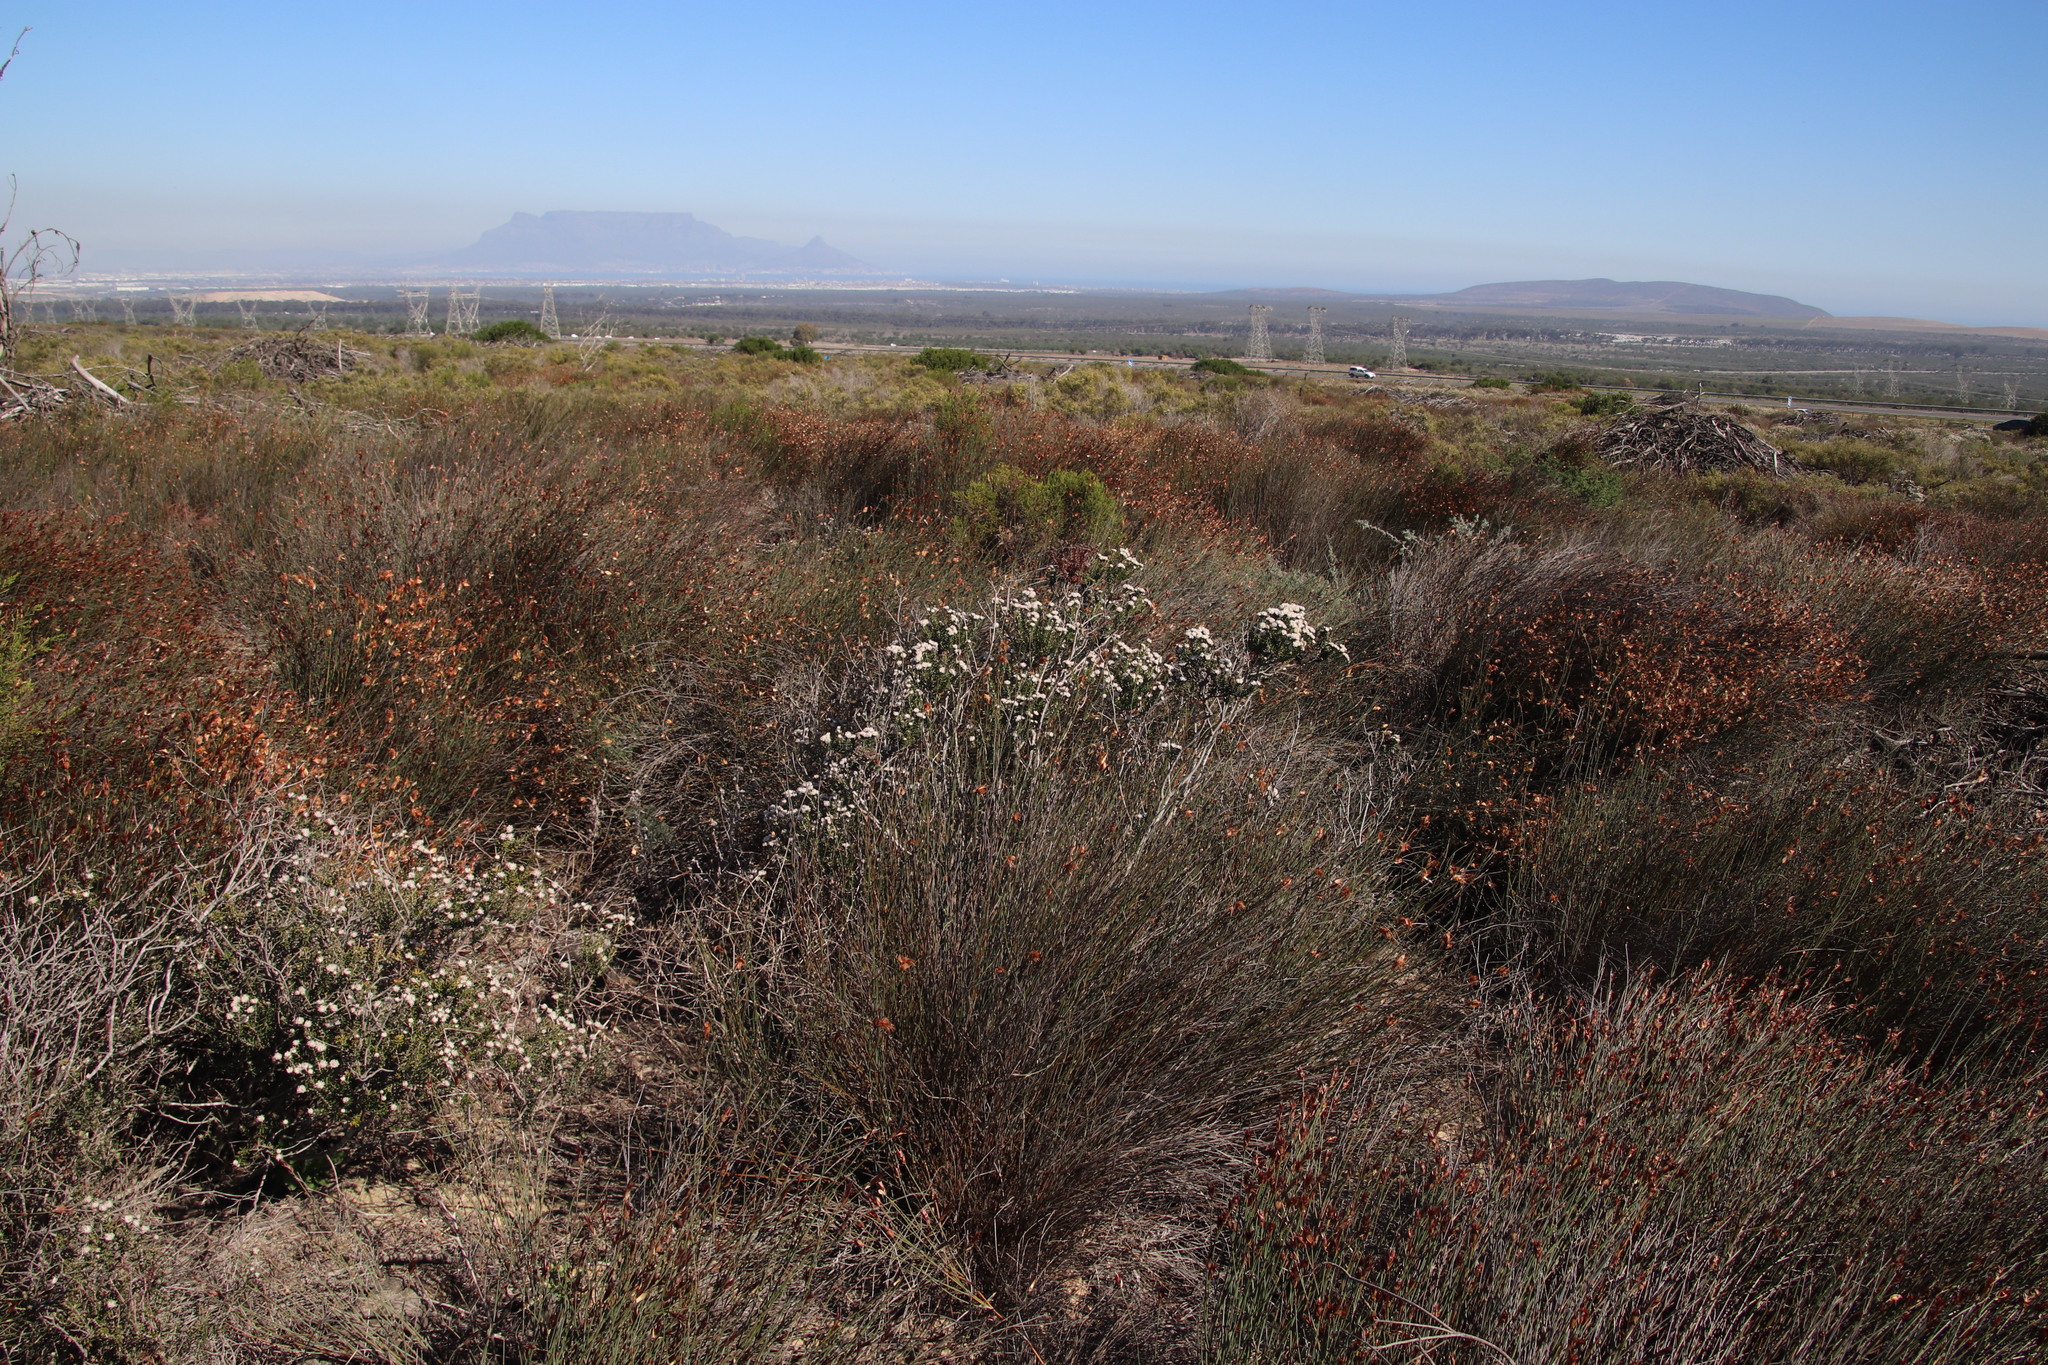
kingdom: Plantae
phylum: Tracheophyta
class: Magnoliopsida
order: Rosales
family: Rhamnaceae
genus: Trichocephalus
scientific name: Trichocephalus stipularis
